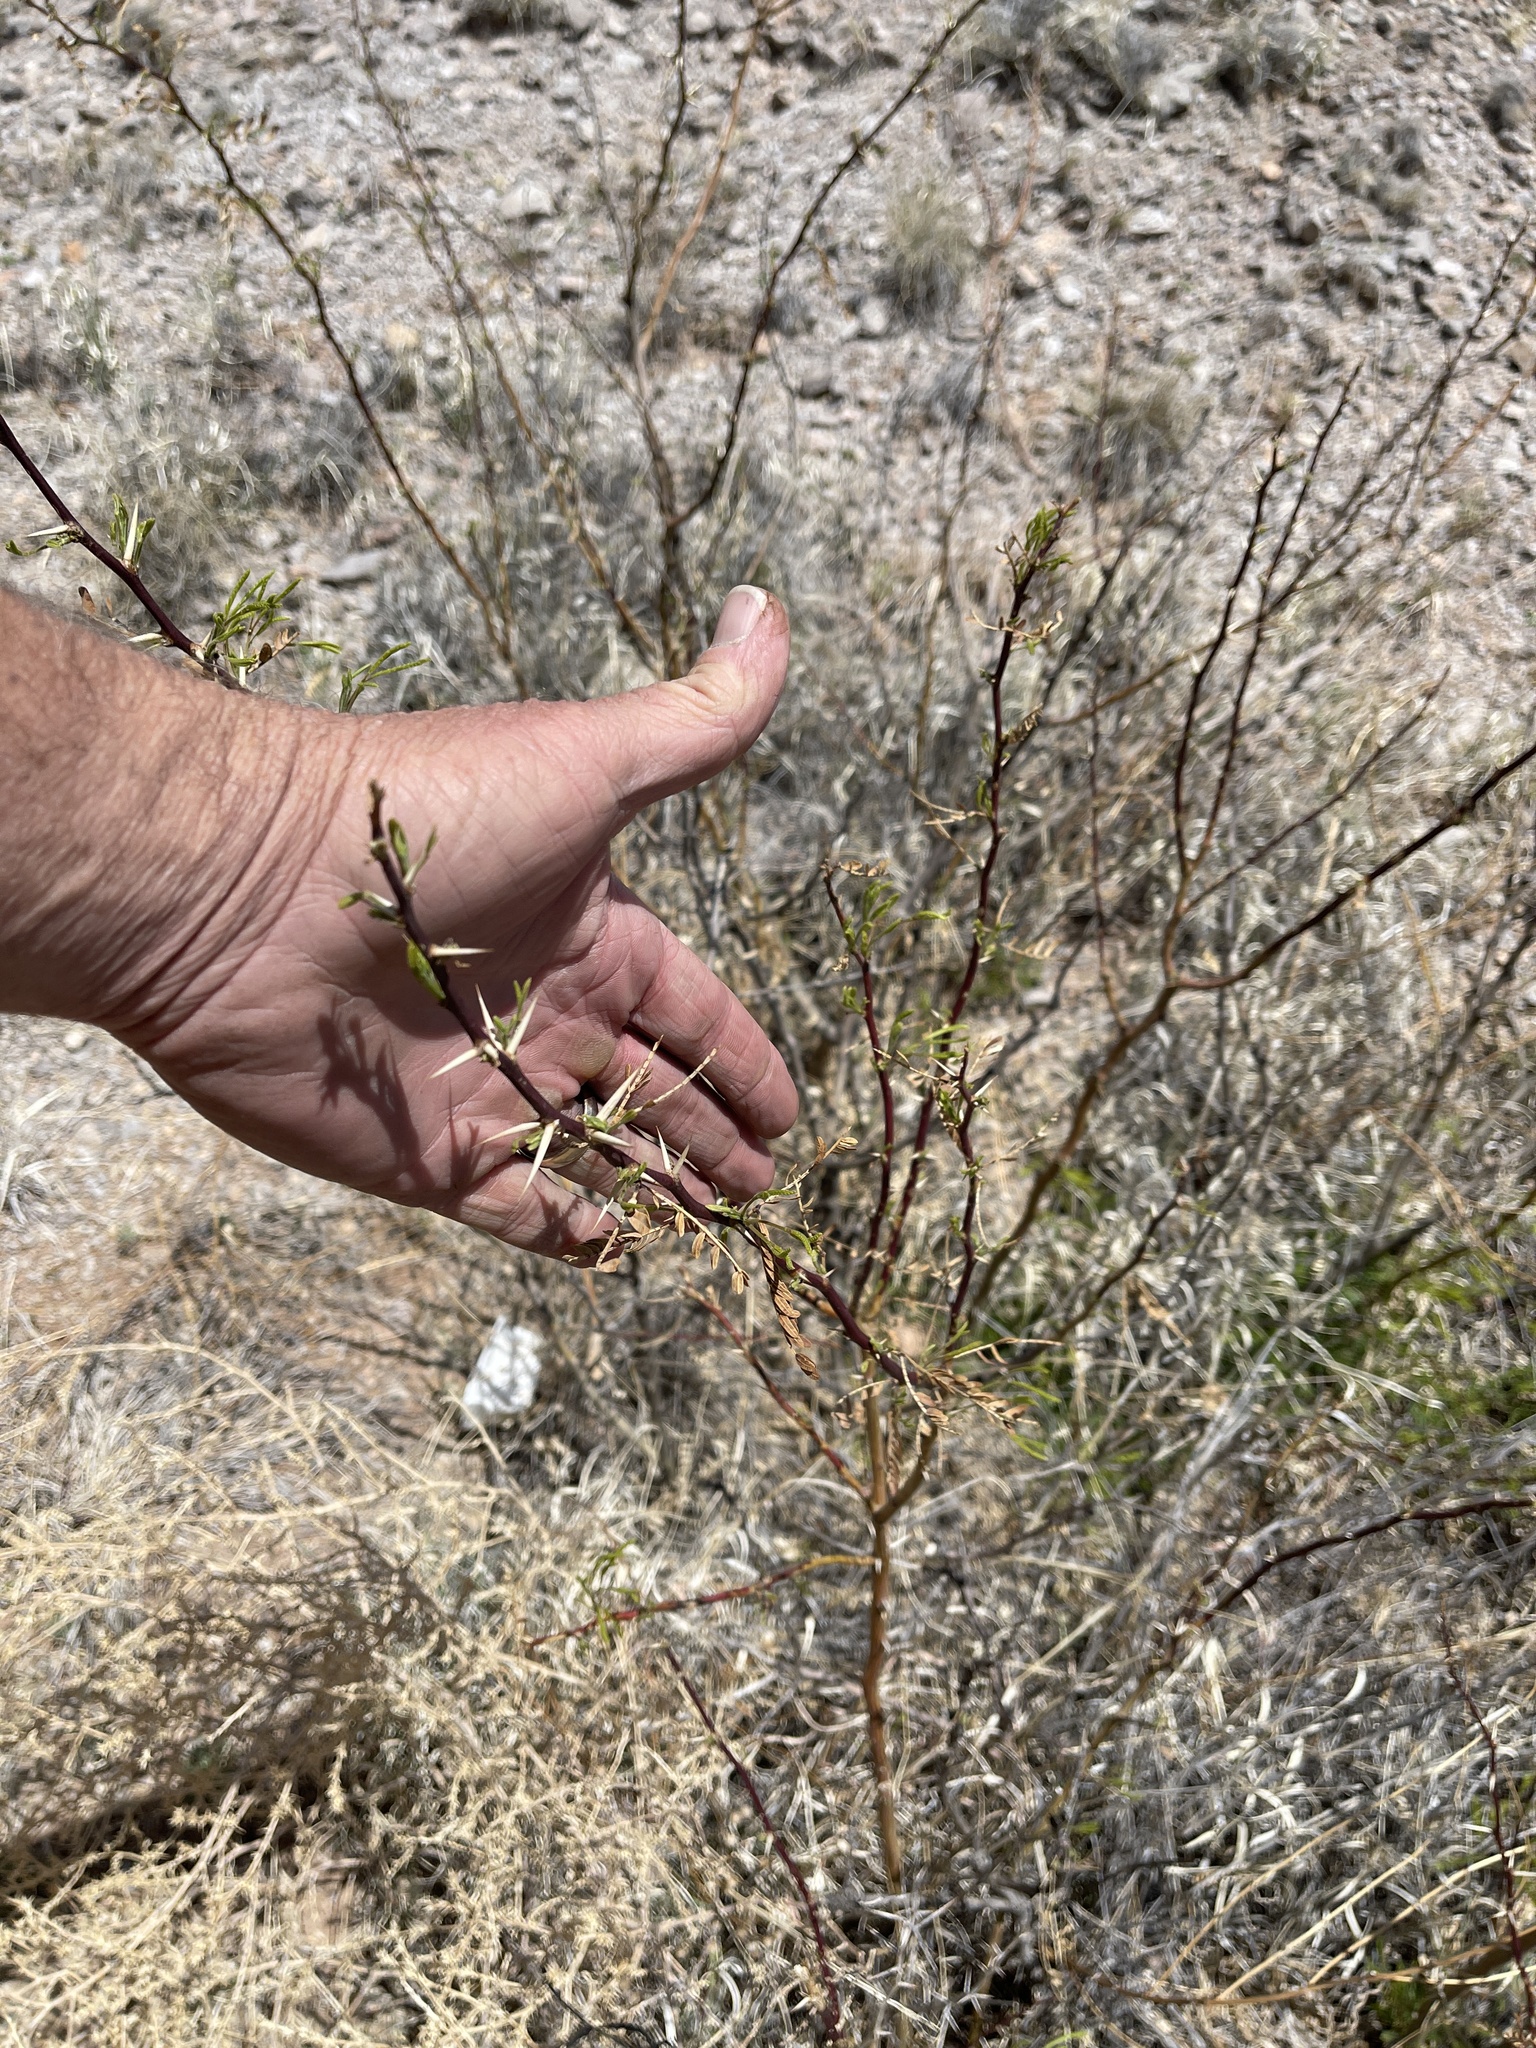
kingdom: Plantae
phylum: Tracheophyta
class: Magnoliopsida
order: Fabales
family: Fabaceae
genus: Prosopis
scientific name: Prosopis glandulosa
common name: Honey mesquite
